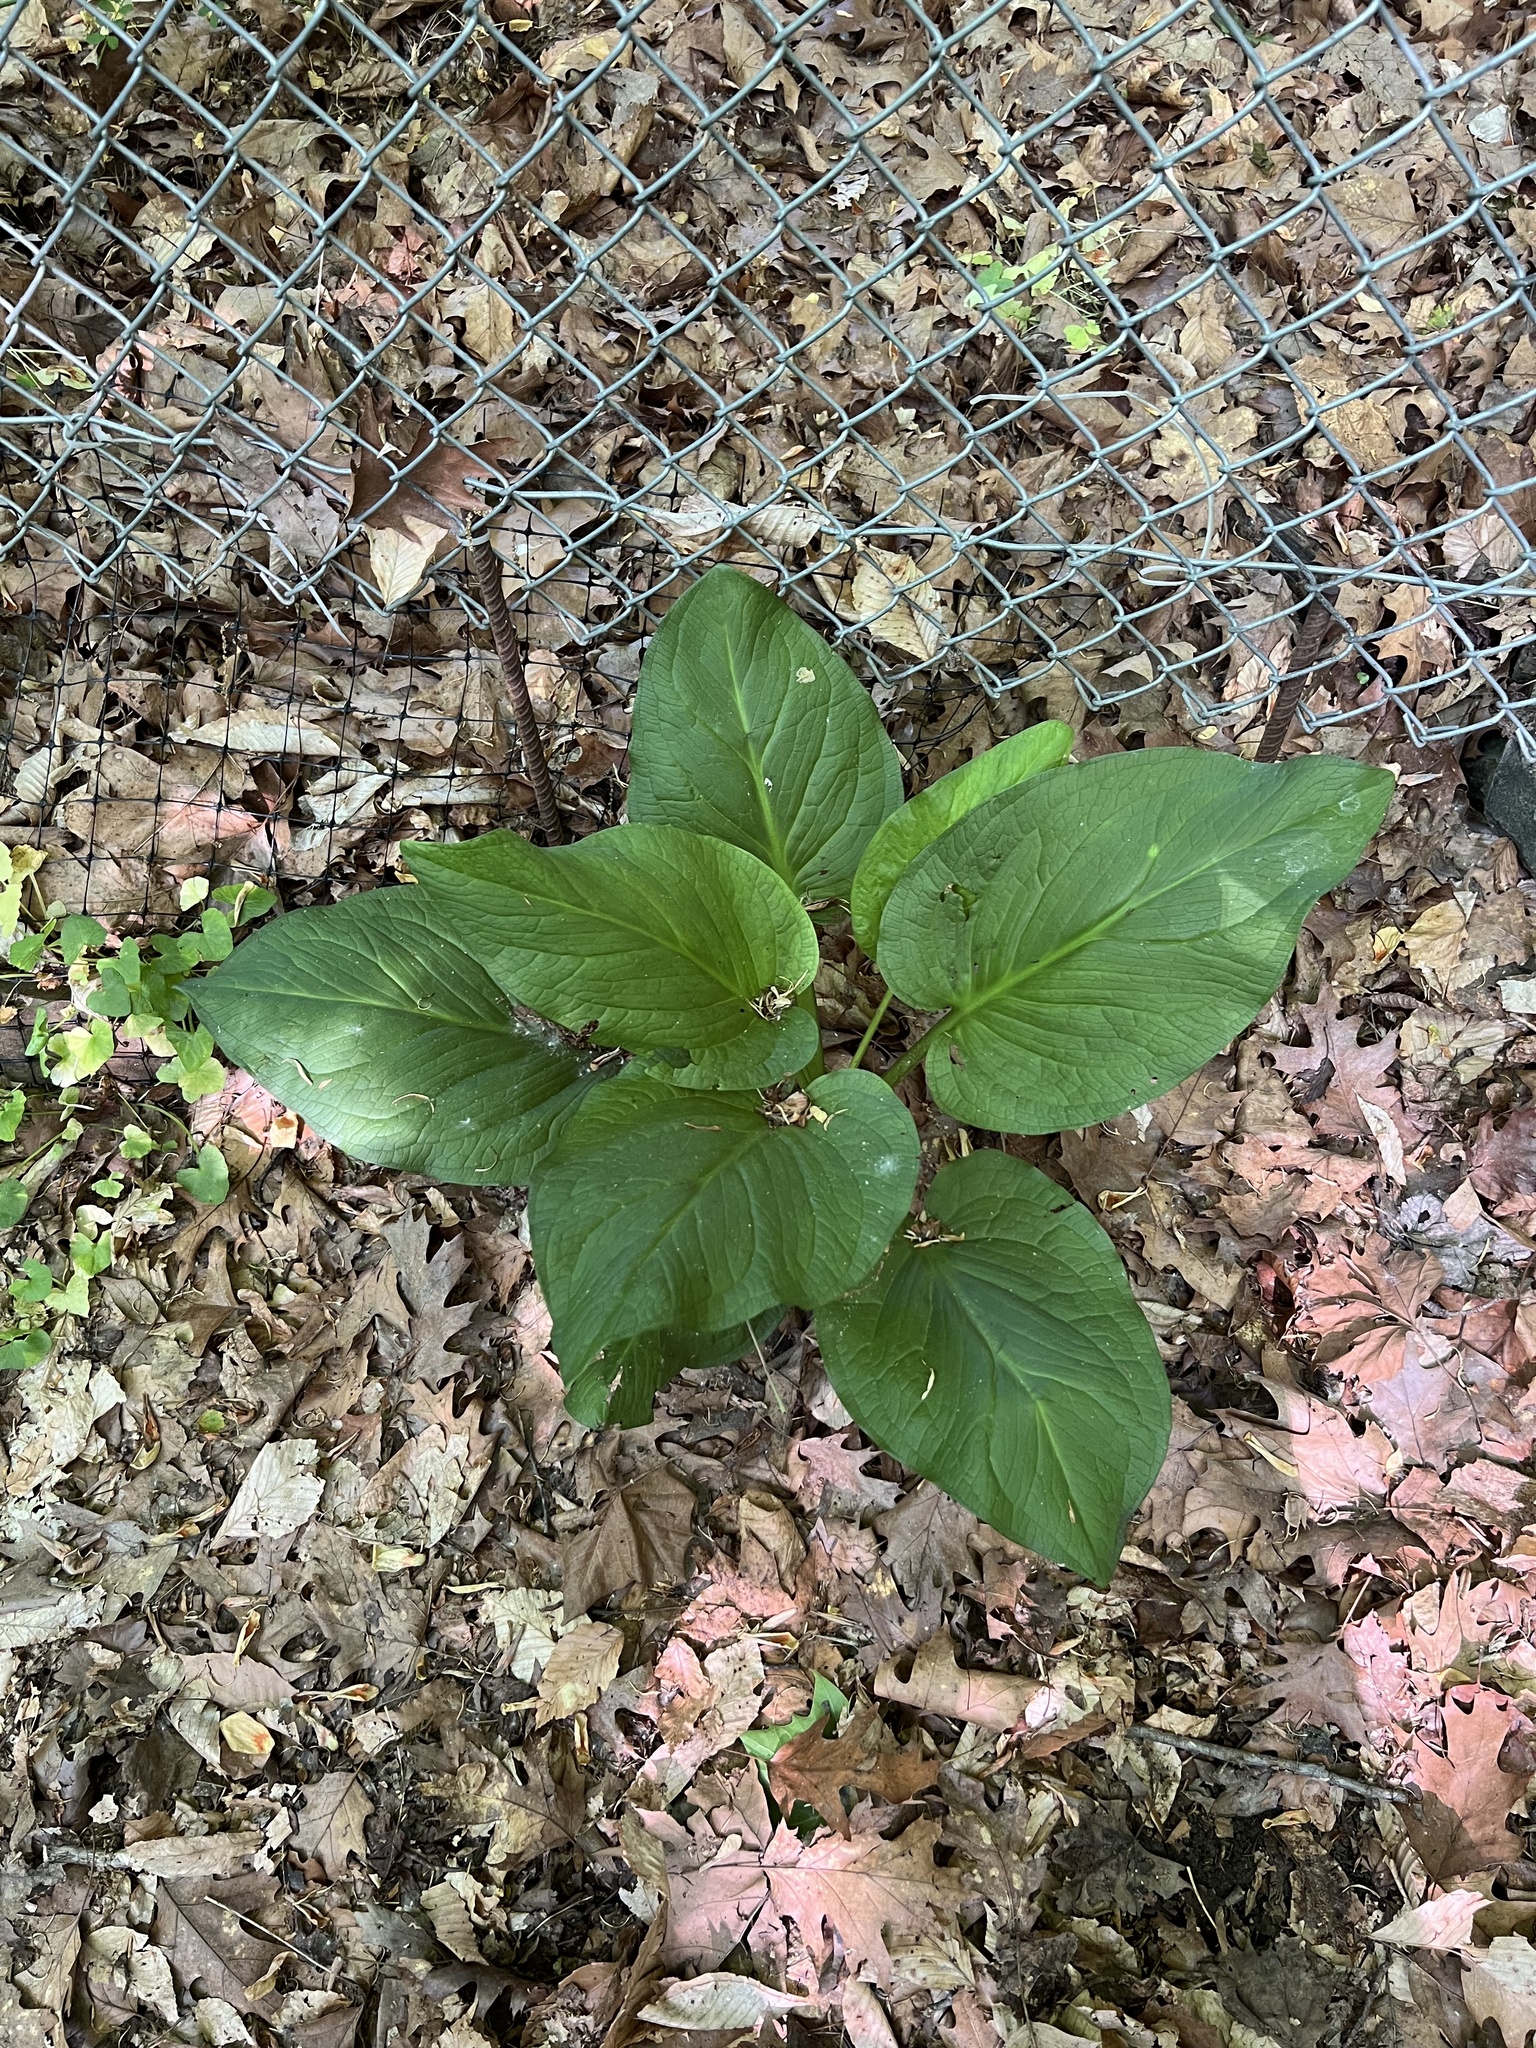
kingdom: Plantae
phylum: Tracheophyta
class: Liliopsida
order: Alismatales
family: Araceae
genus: Symplocarpus
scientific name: Symplocarpus foetidus
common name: Eastern skunk cabbage
